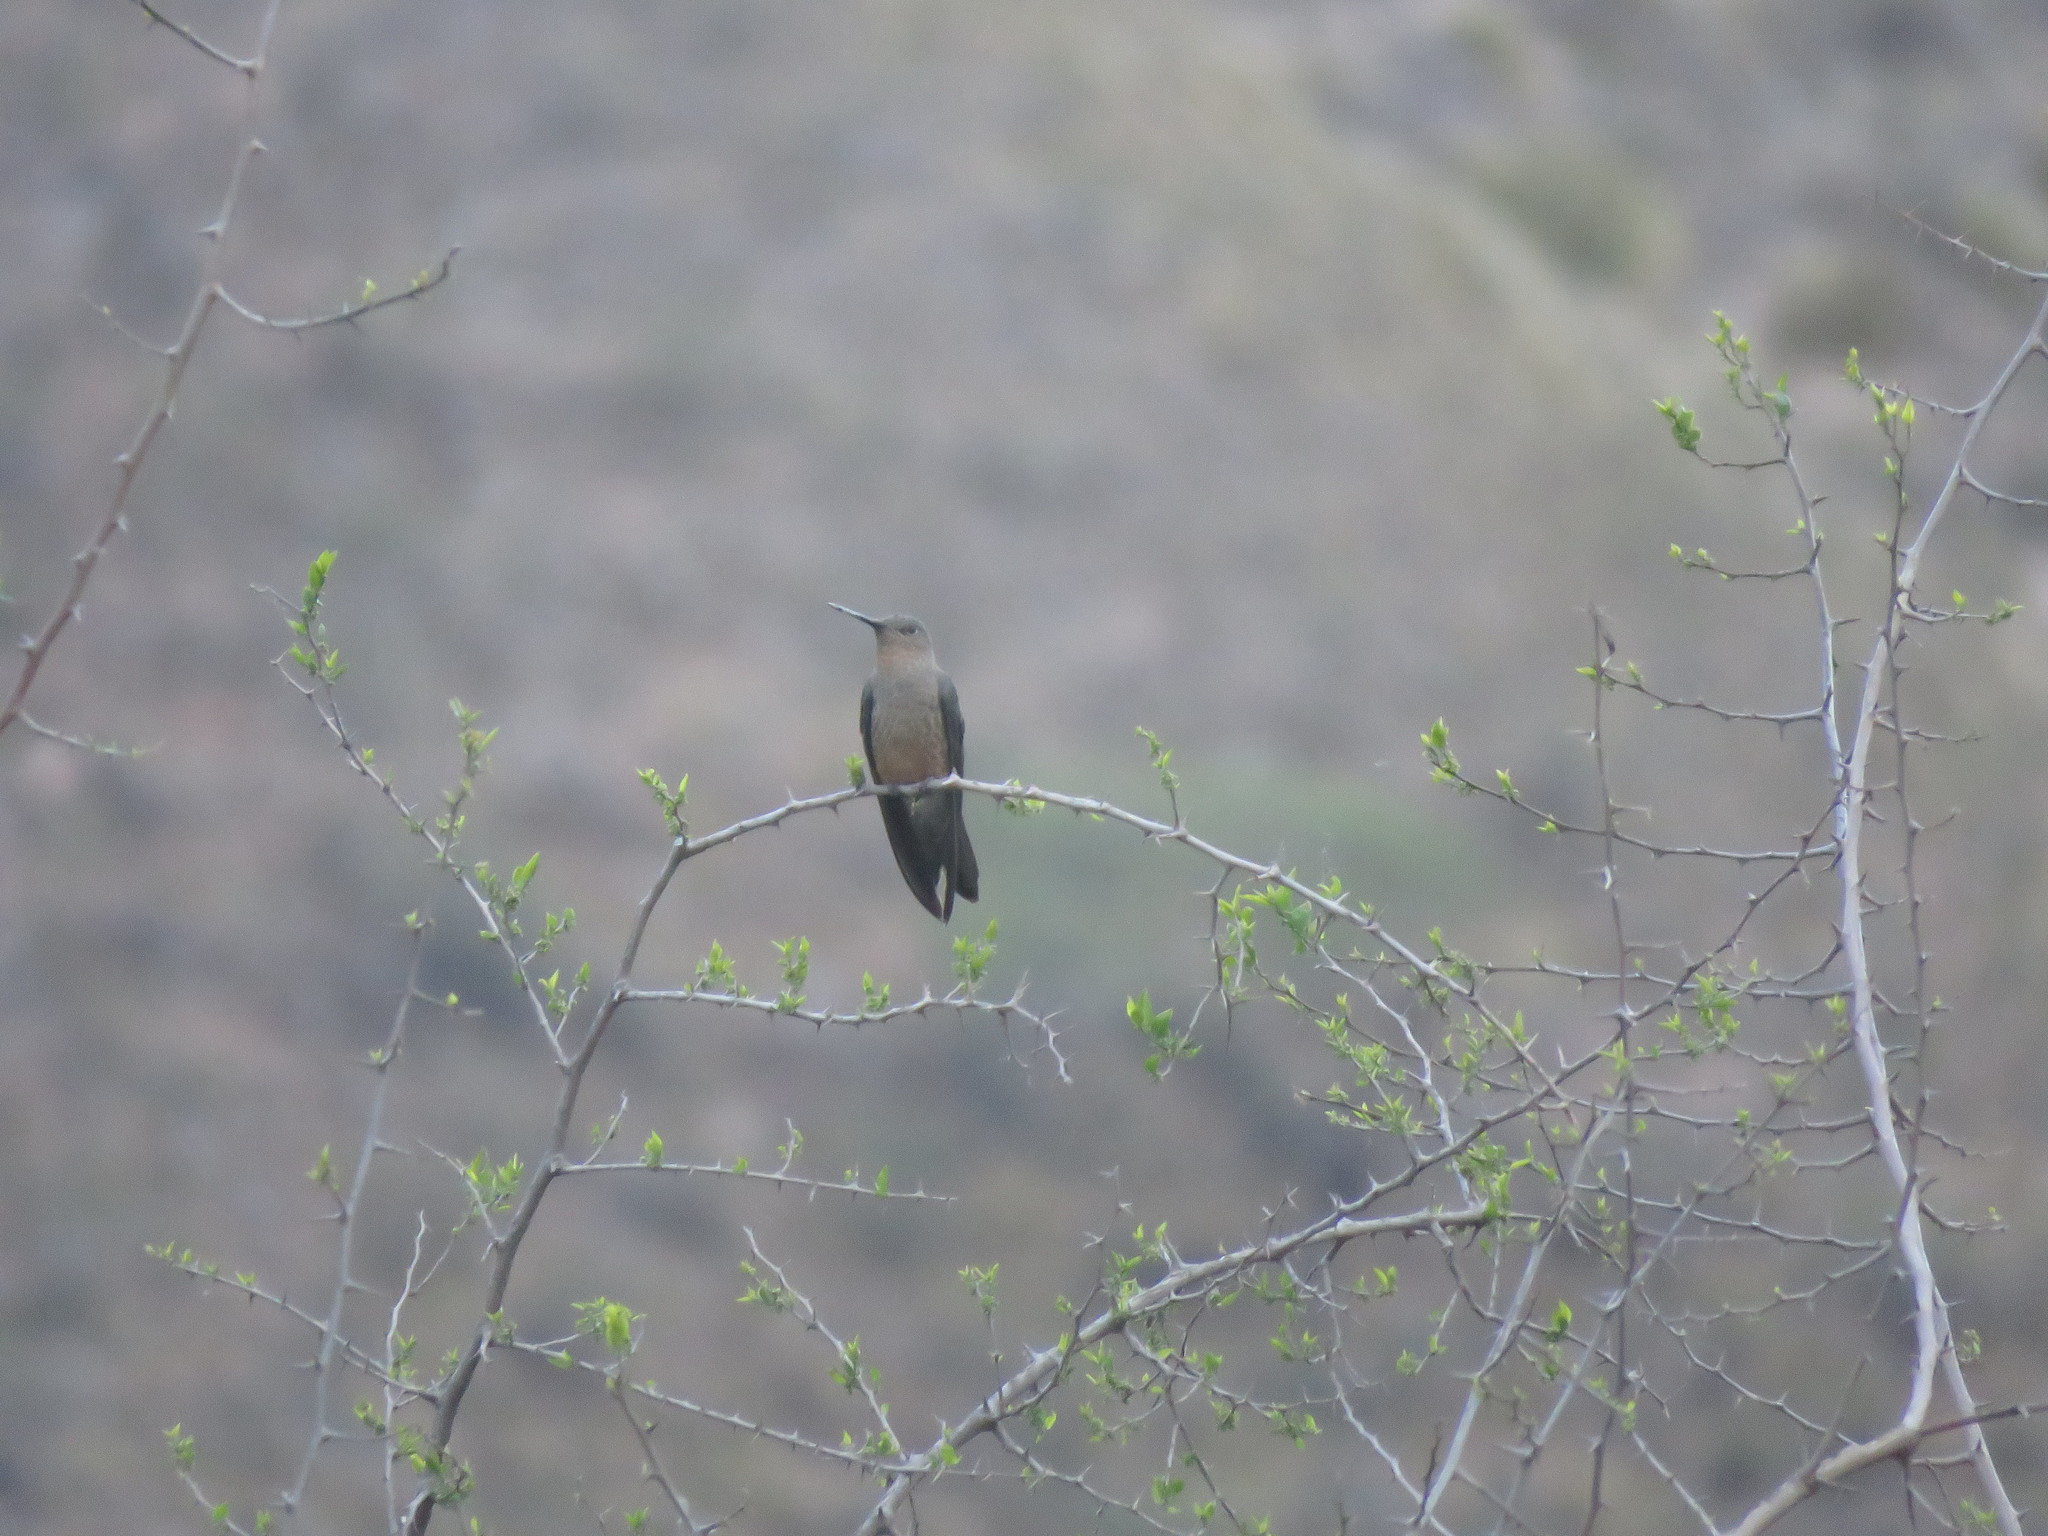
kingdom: Animalia
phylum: Chordata
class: Aves
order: Apodiformes
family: Trochilidae
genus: Patagona
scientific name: Patagona gigas
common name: Giant hummingbird
